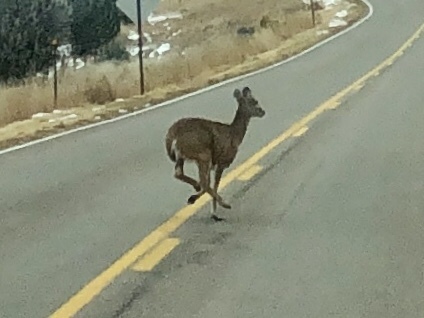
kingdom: Animalia
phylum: Chordata
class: Mammalia
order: Artiodactyla
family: Cervidae
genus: Odocoileus
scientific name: Odocoileus virginianus
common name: White-tailed deer
